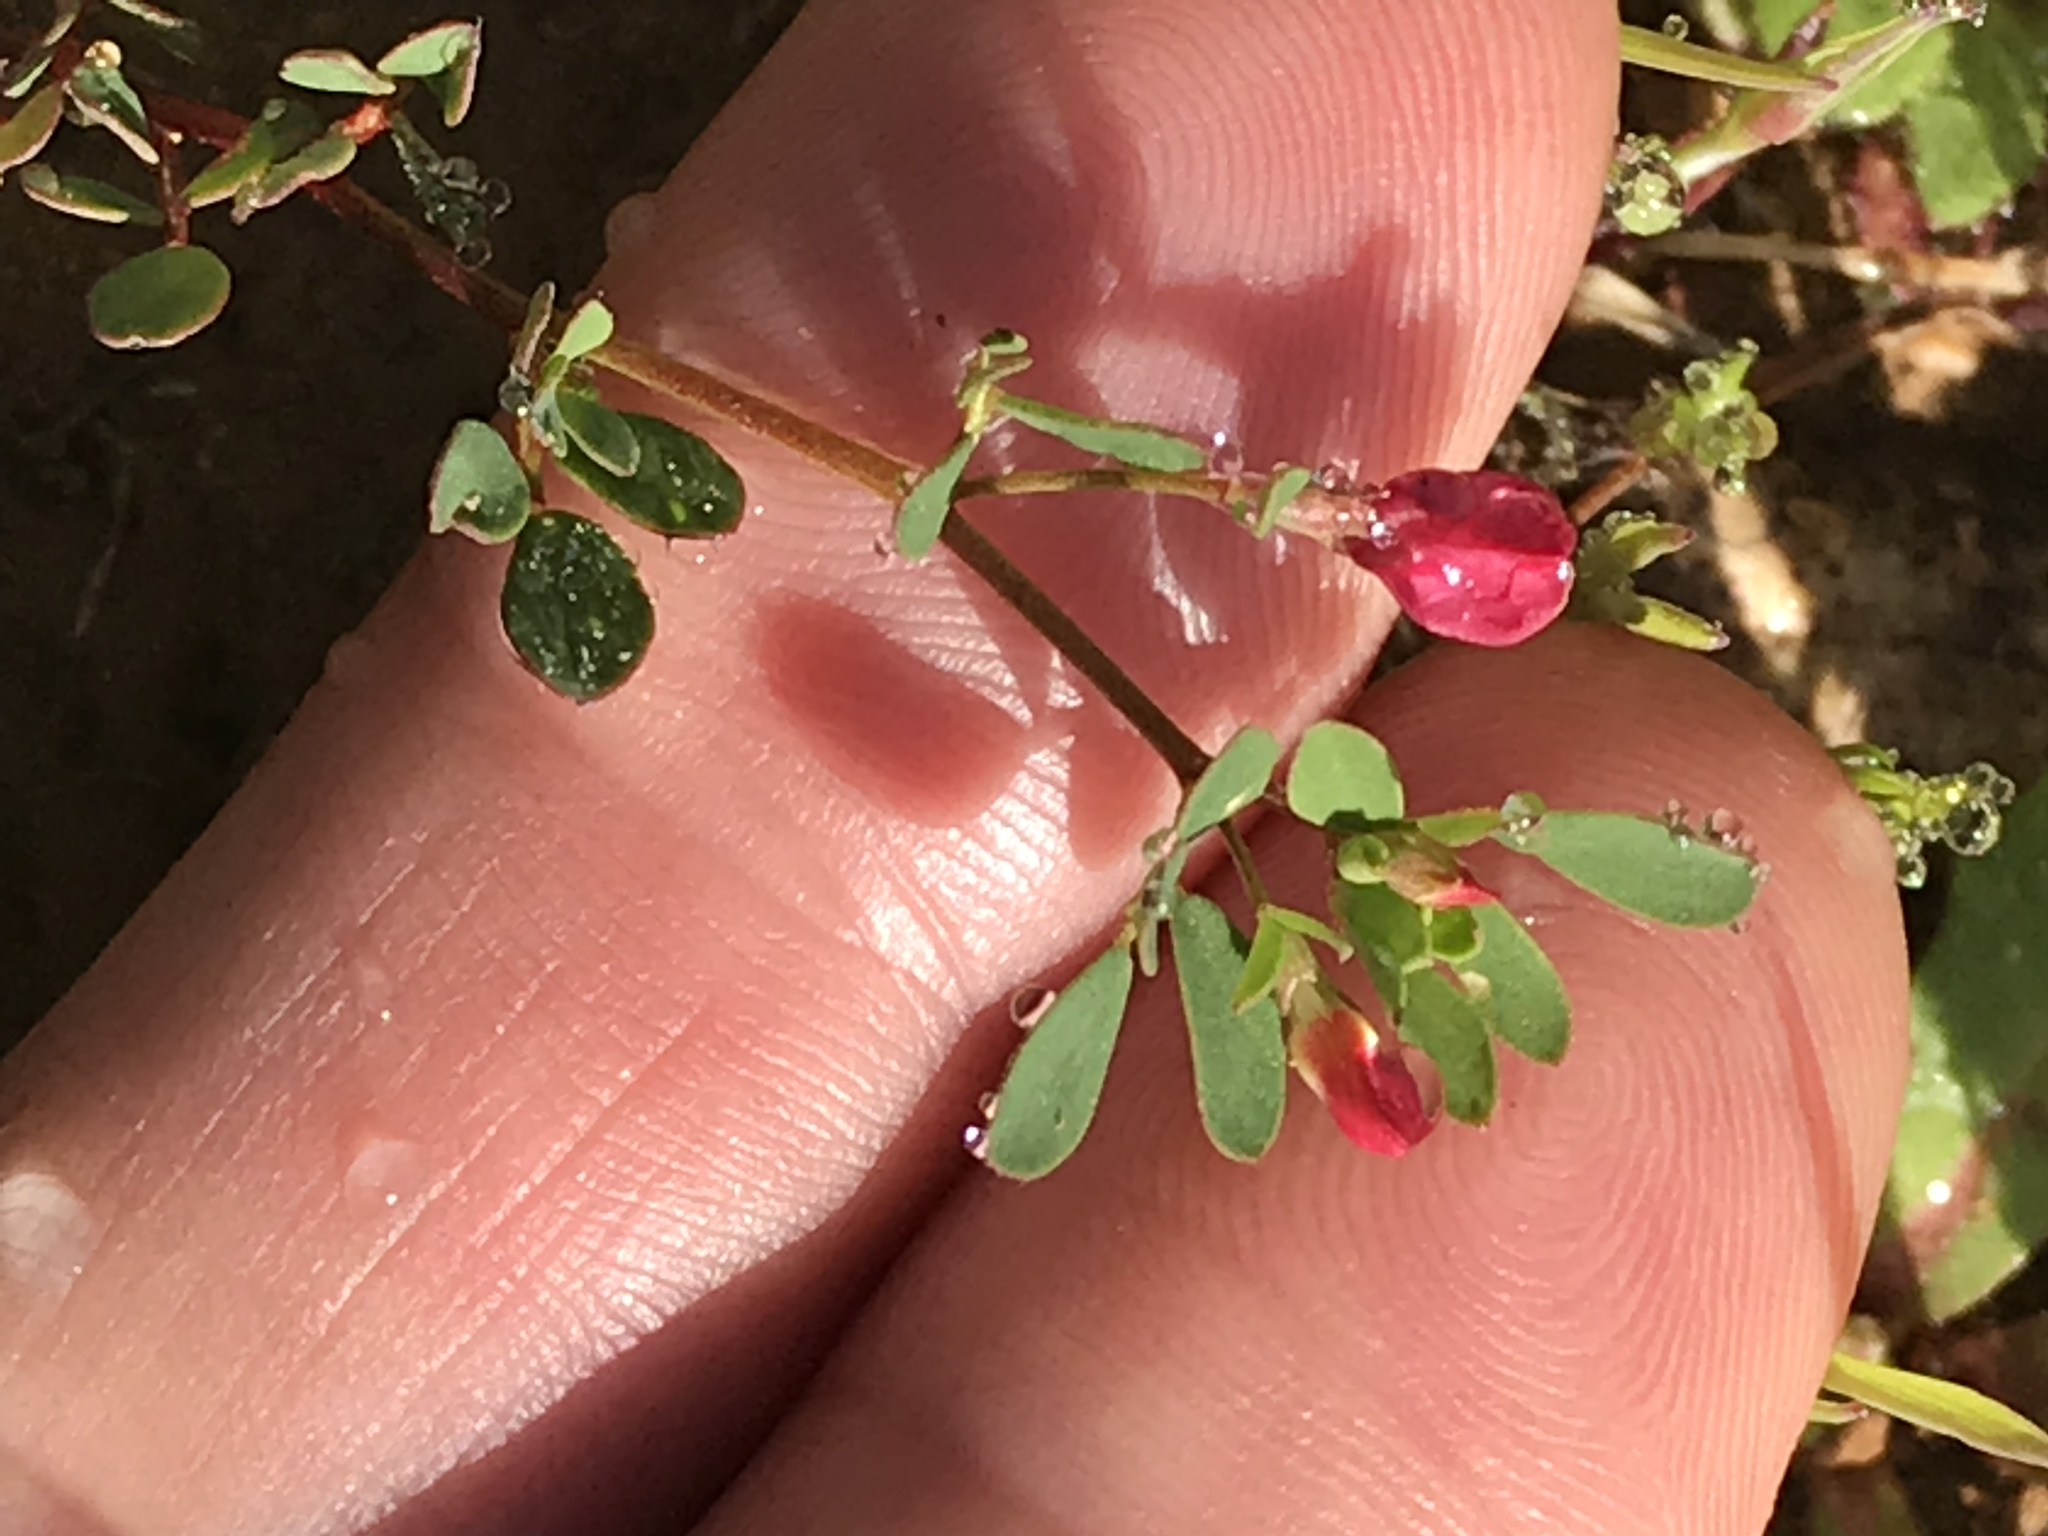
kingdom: Plantae
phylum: Tracheophyta
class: Magnoliopsida
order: Fabales
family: Fabaceae
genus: Acmispon
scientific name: Acmispon parviflorus
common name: Desert deer-vetch
